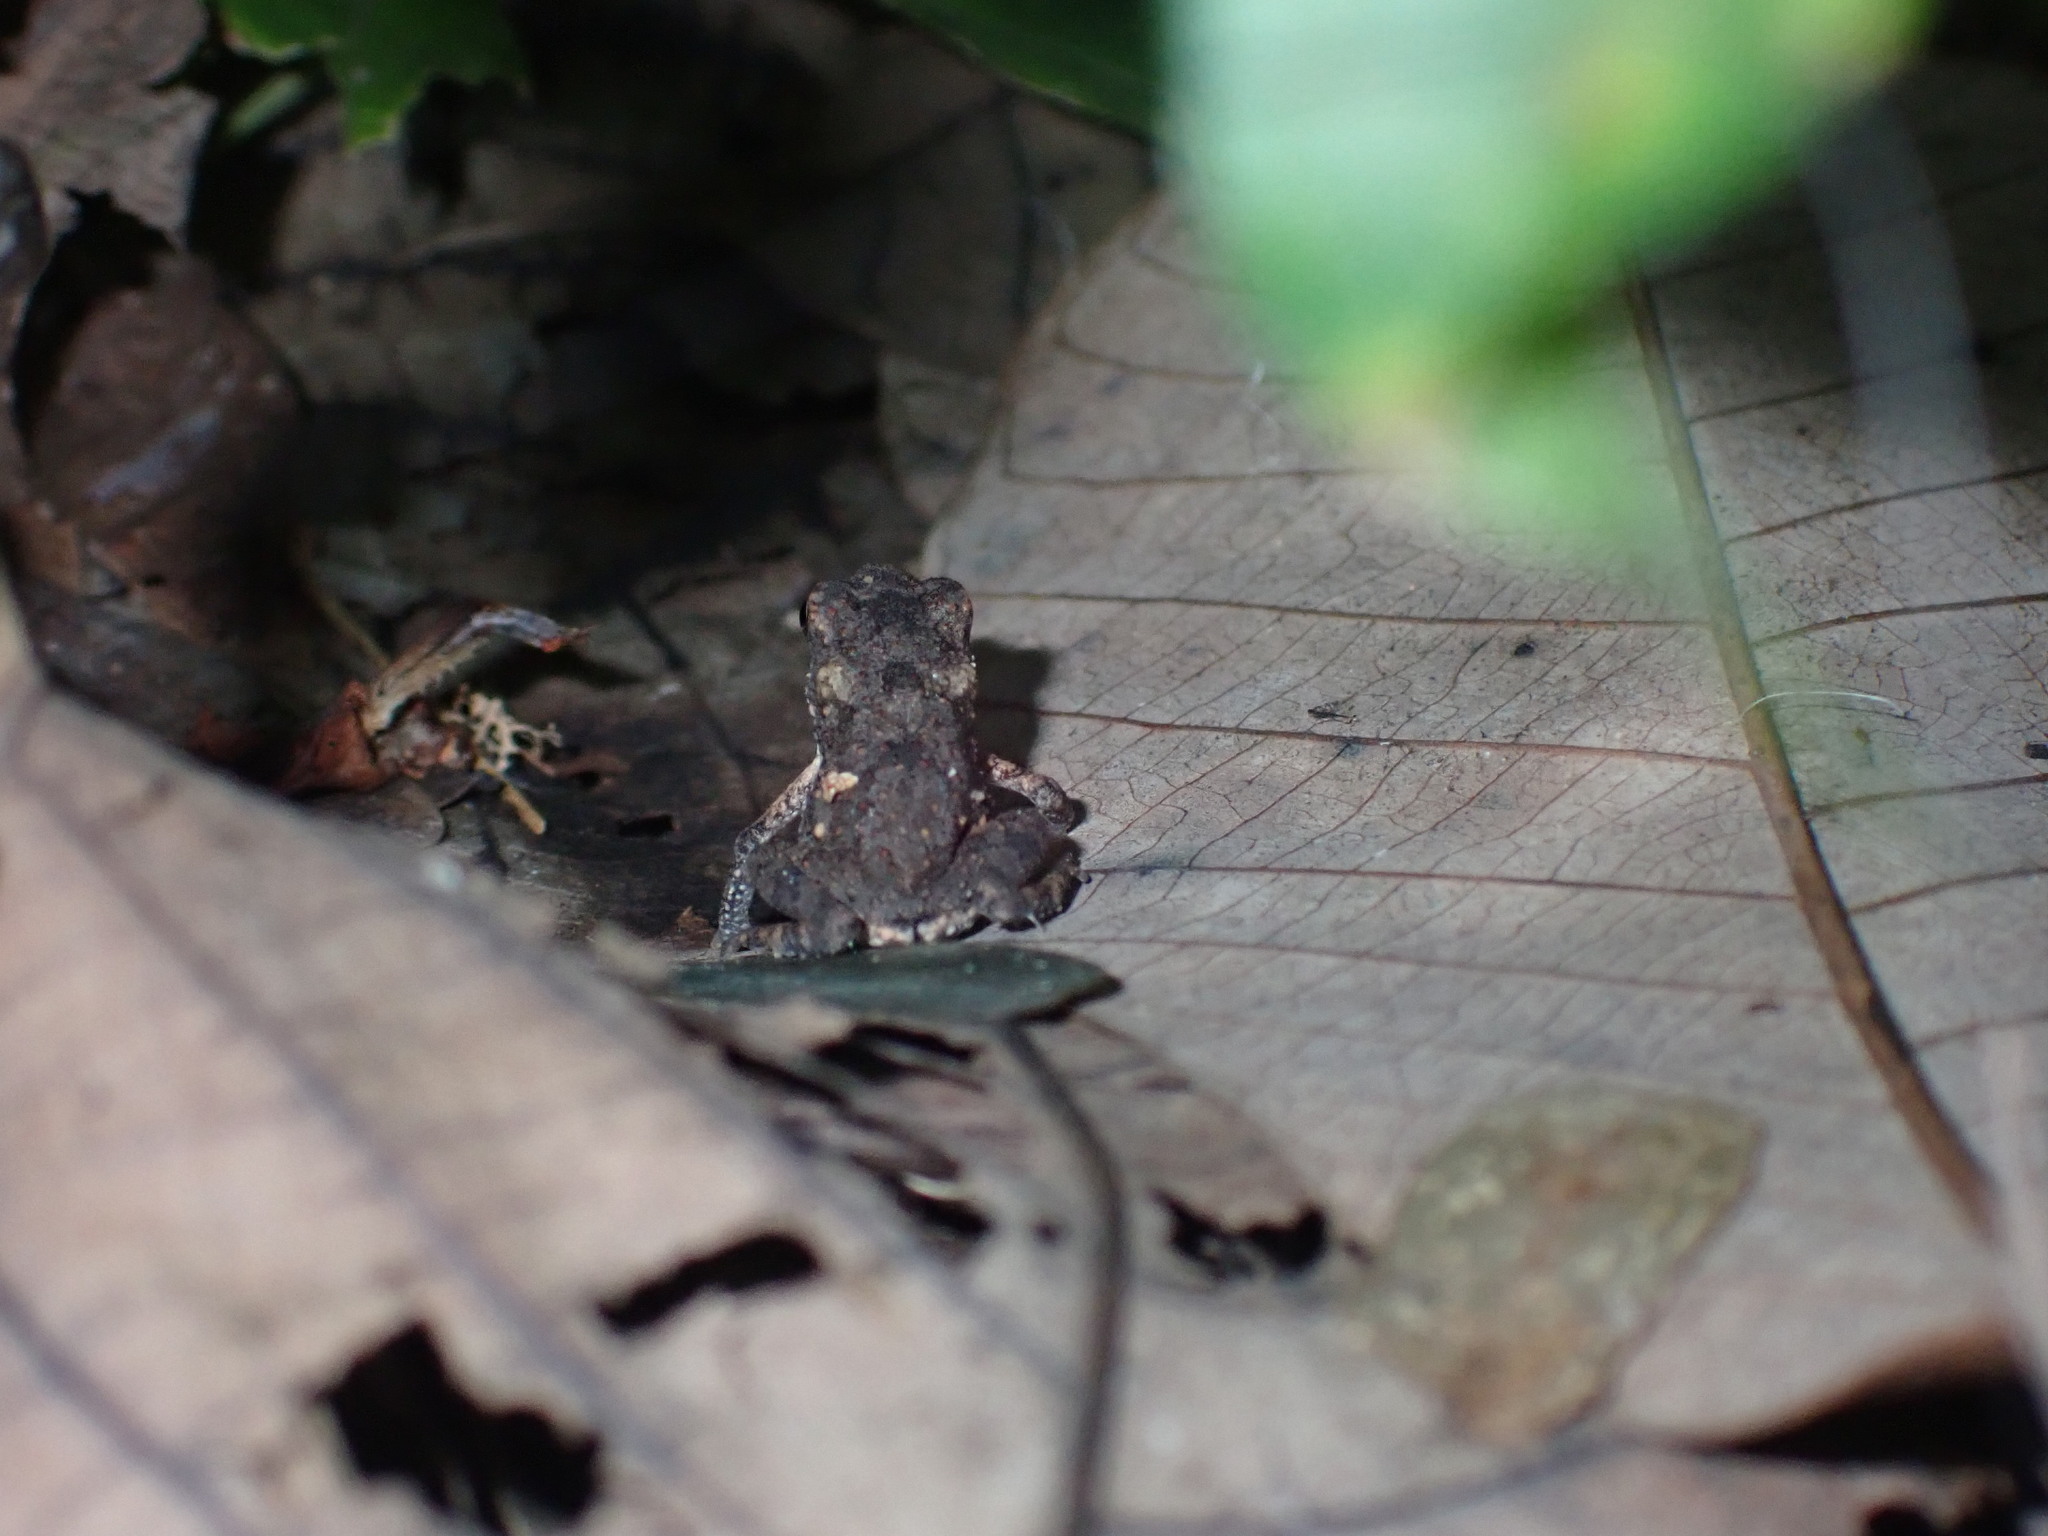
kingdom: Animalia
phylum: Chordata
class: Amphibia
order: Anura
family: Bufonidae
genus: Ingerophrynus
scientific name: Ingerophrynus macrotis
